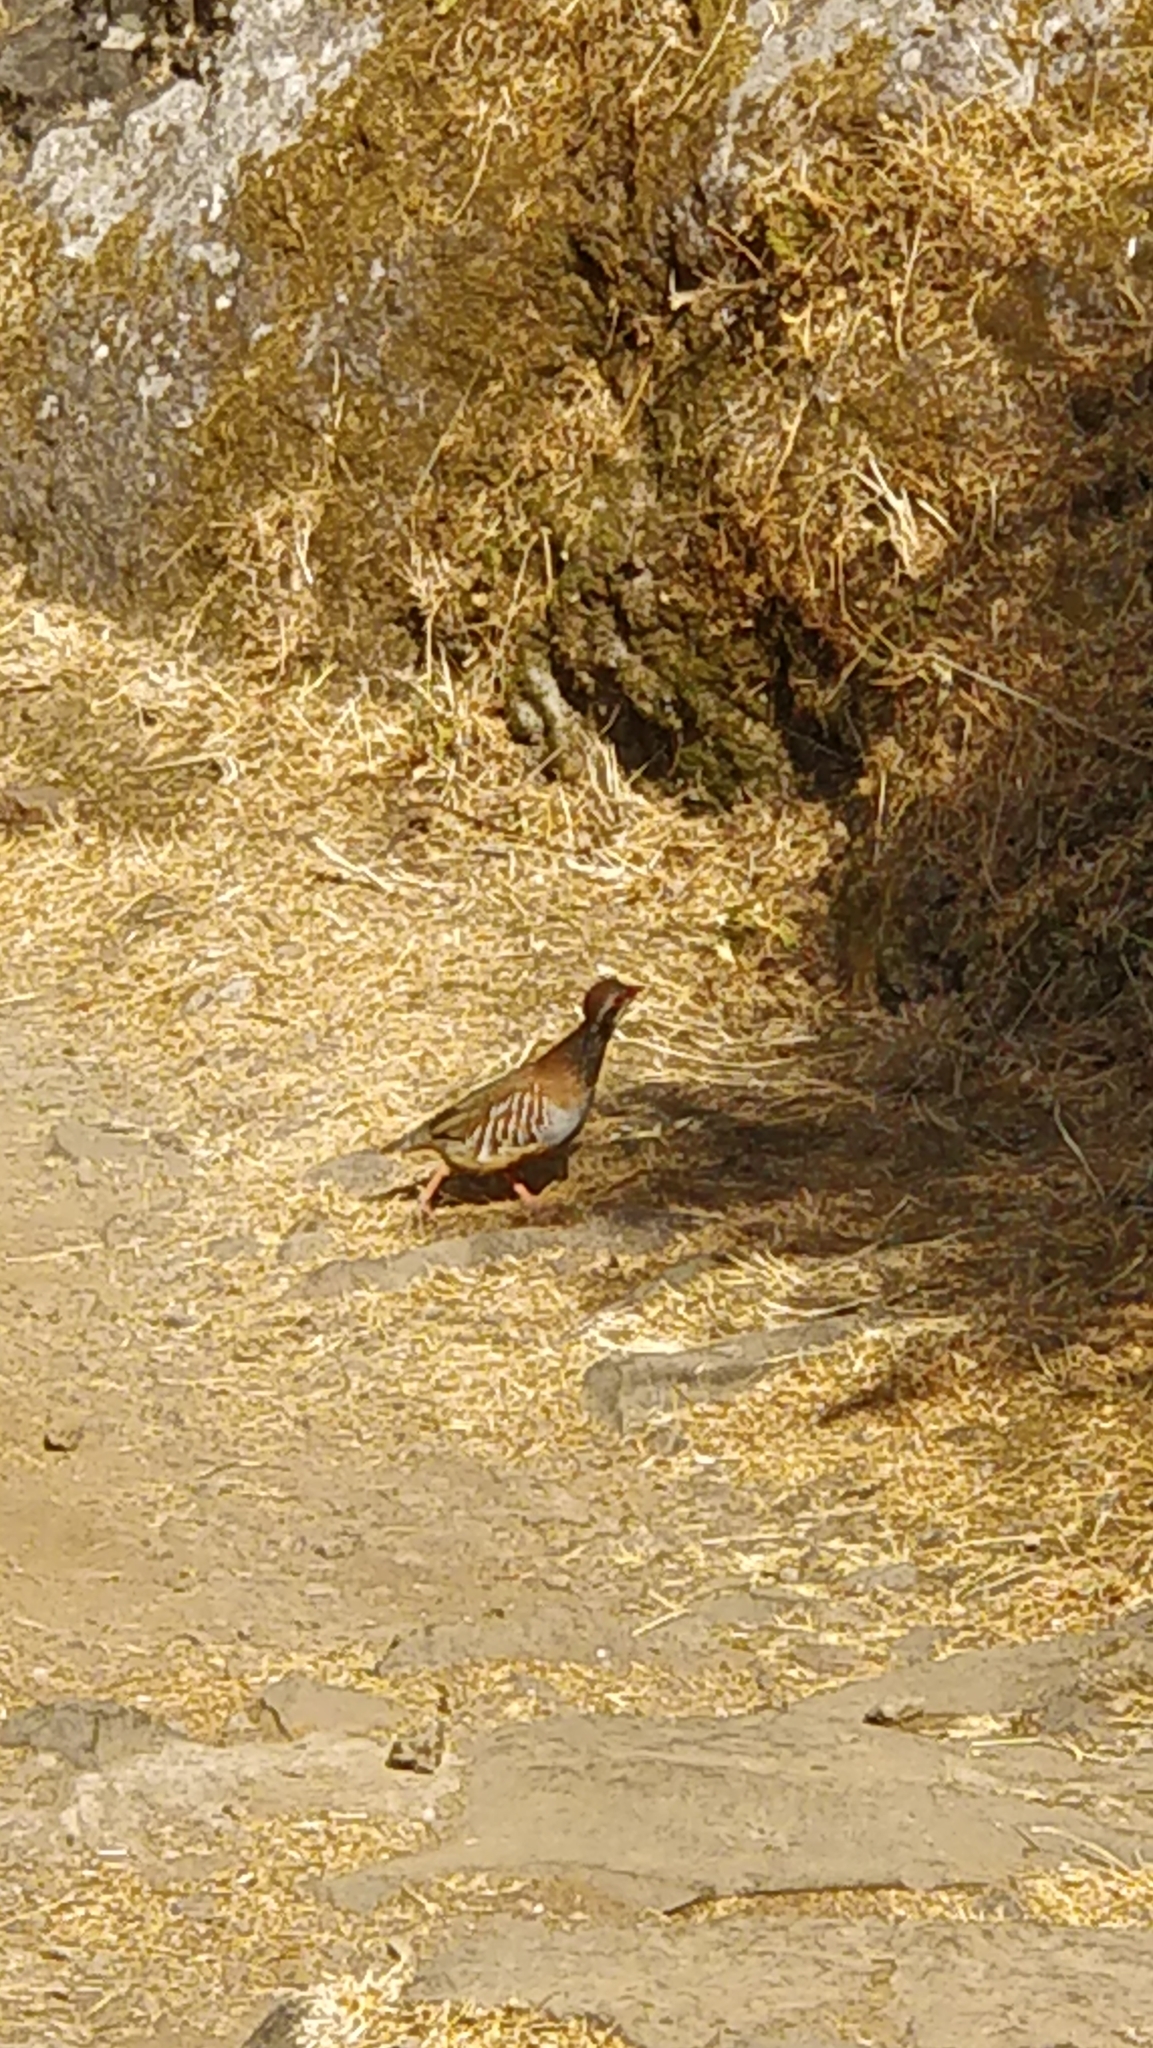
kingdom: Animalia
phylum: Chordata
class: Aves
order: Galliformes
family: Phasianidae
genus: Alectoris
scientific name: Alectoris rufa
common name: Red-legged partridge
